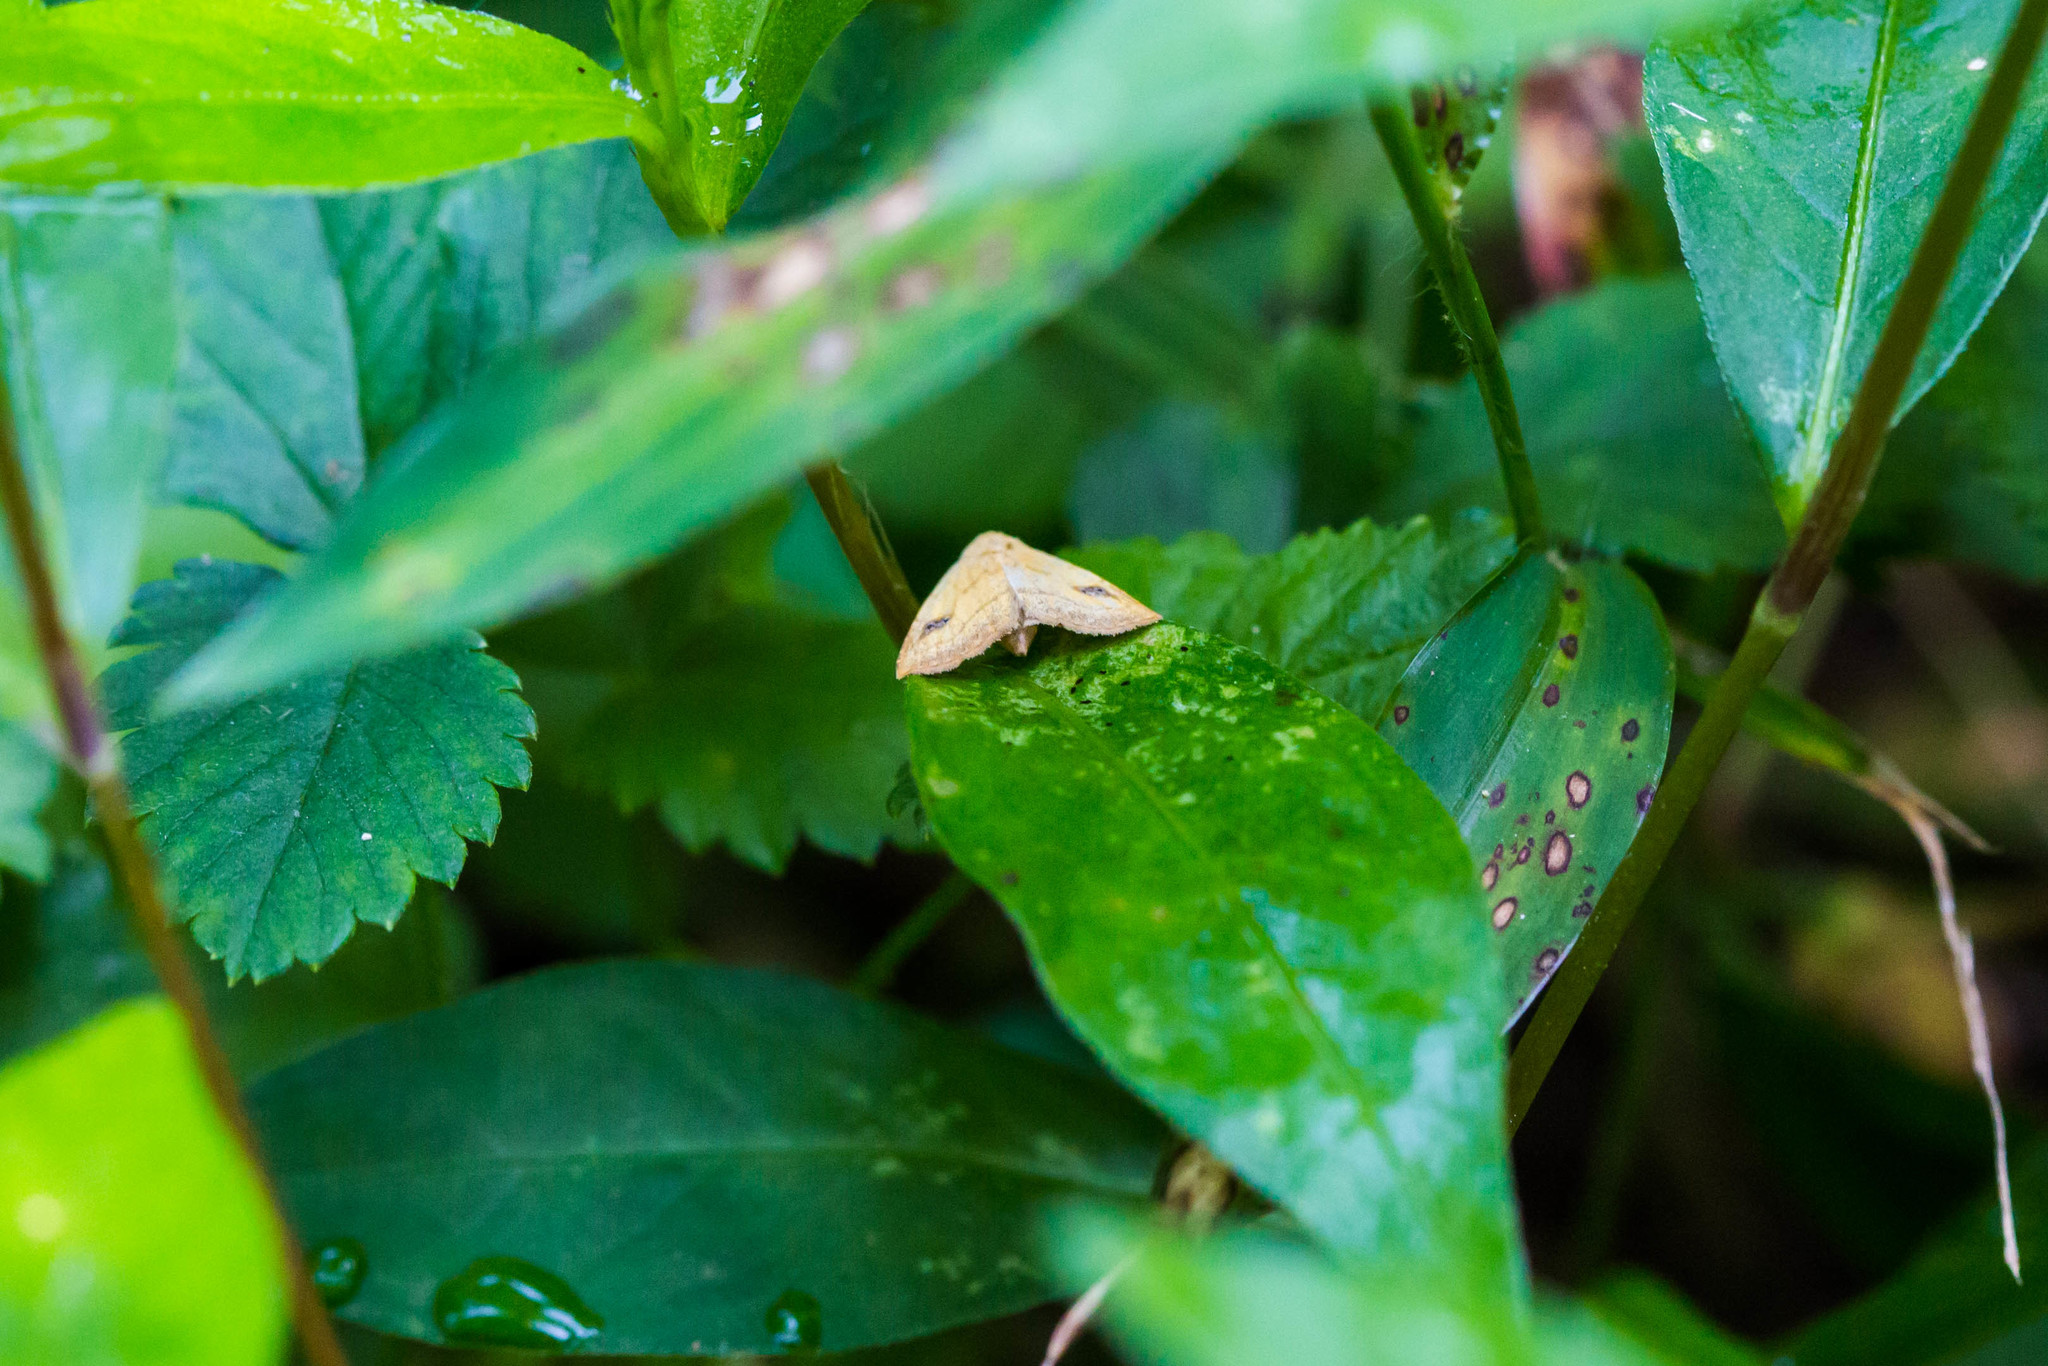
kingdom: Animalia
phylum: Arthropoda
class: Insecta
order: Lepidoptera
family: Erebidae
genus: Rivula
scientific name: Rivula propinqualis
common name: Spotted grass moth
